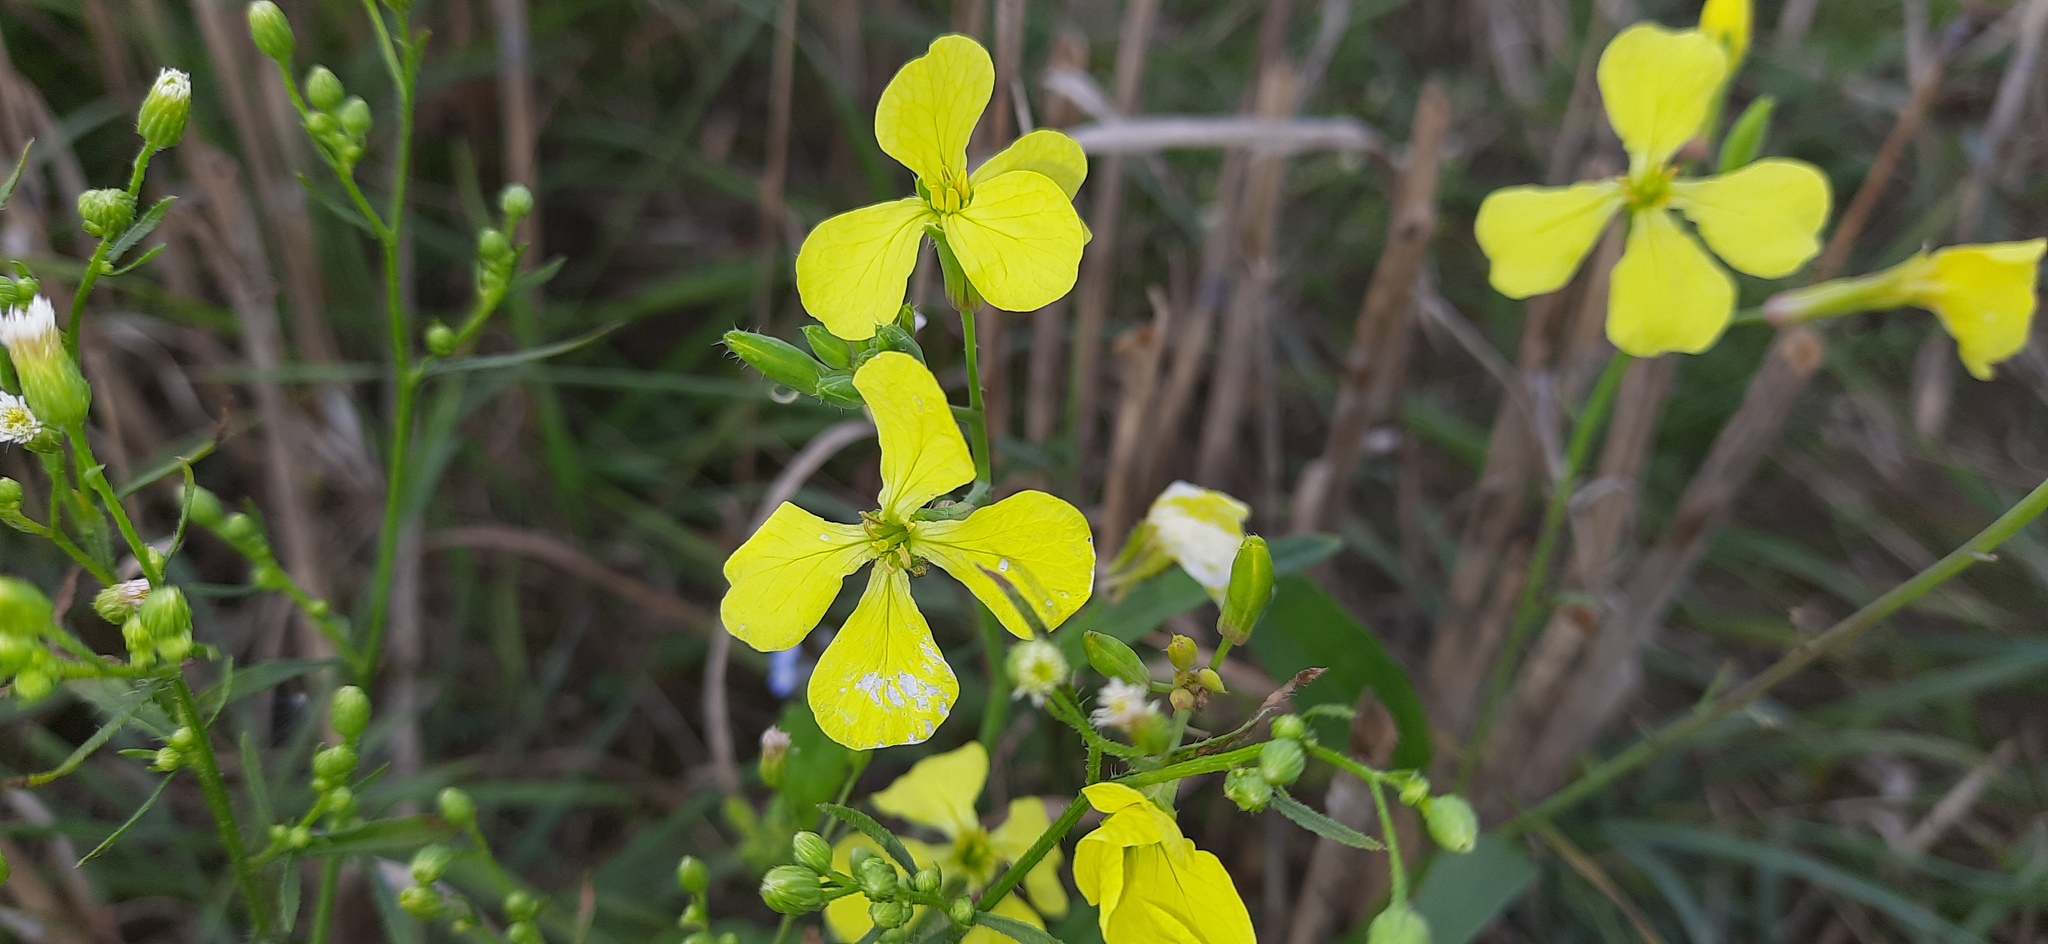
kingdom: Plantae
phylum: Tracheophyta
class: Magnoliopsida
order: Brassicales
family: Brassicaceae
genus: Raphanus
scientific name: Raphanus raphanistrum
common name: Wild radish
